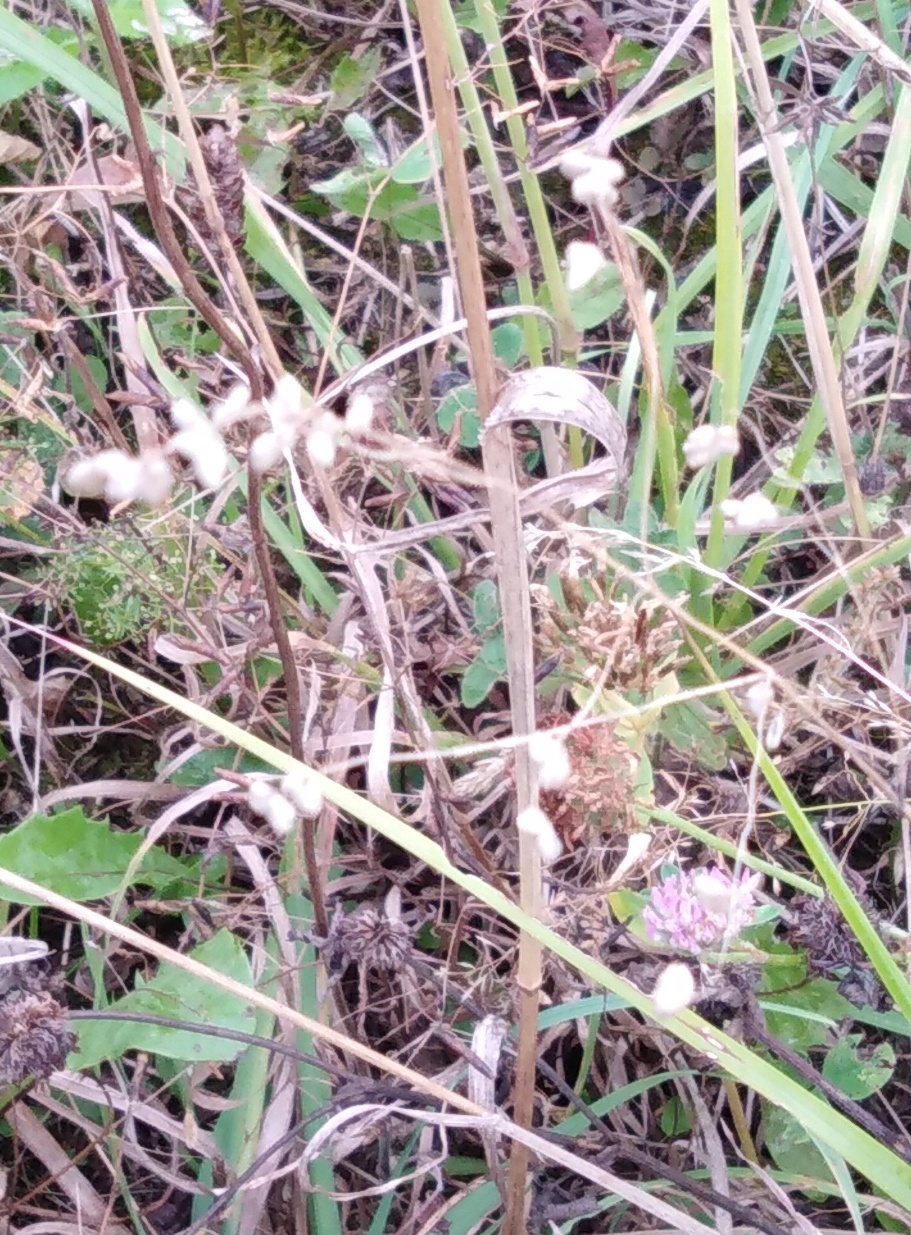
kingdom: Plantae
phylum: Tracheophyta
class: Liliopsida
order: Poales
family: Poaceae
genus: Briza
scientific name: Briza media
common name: Quaking grass
